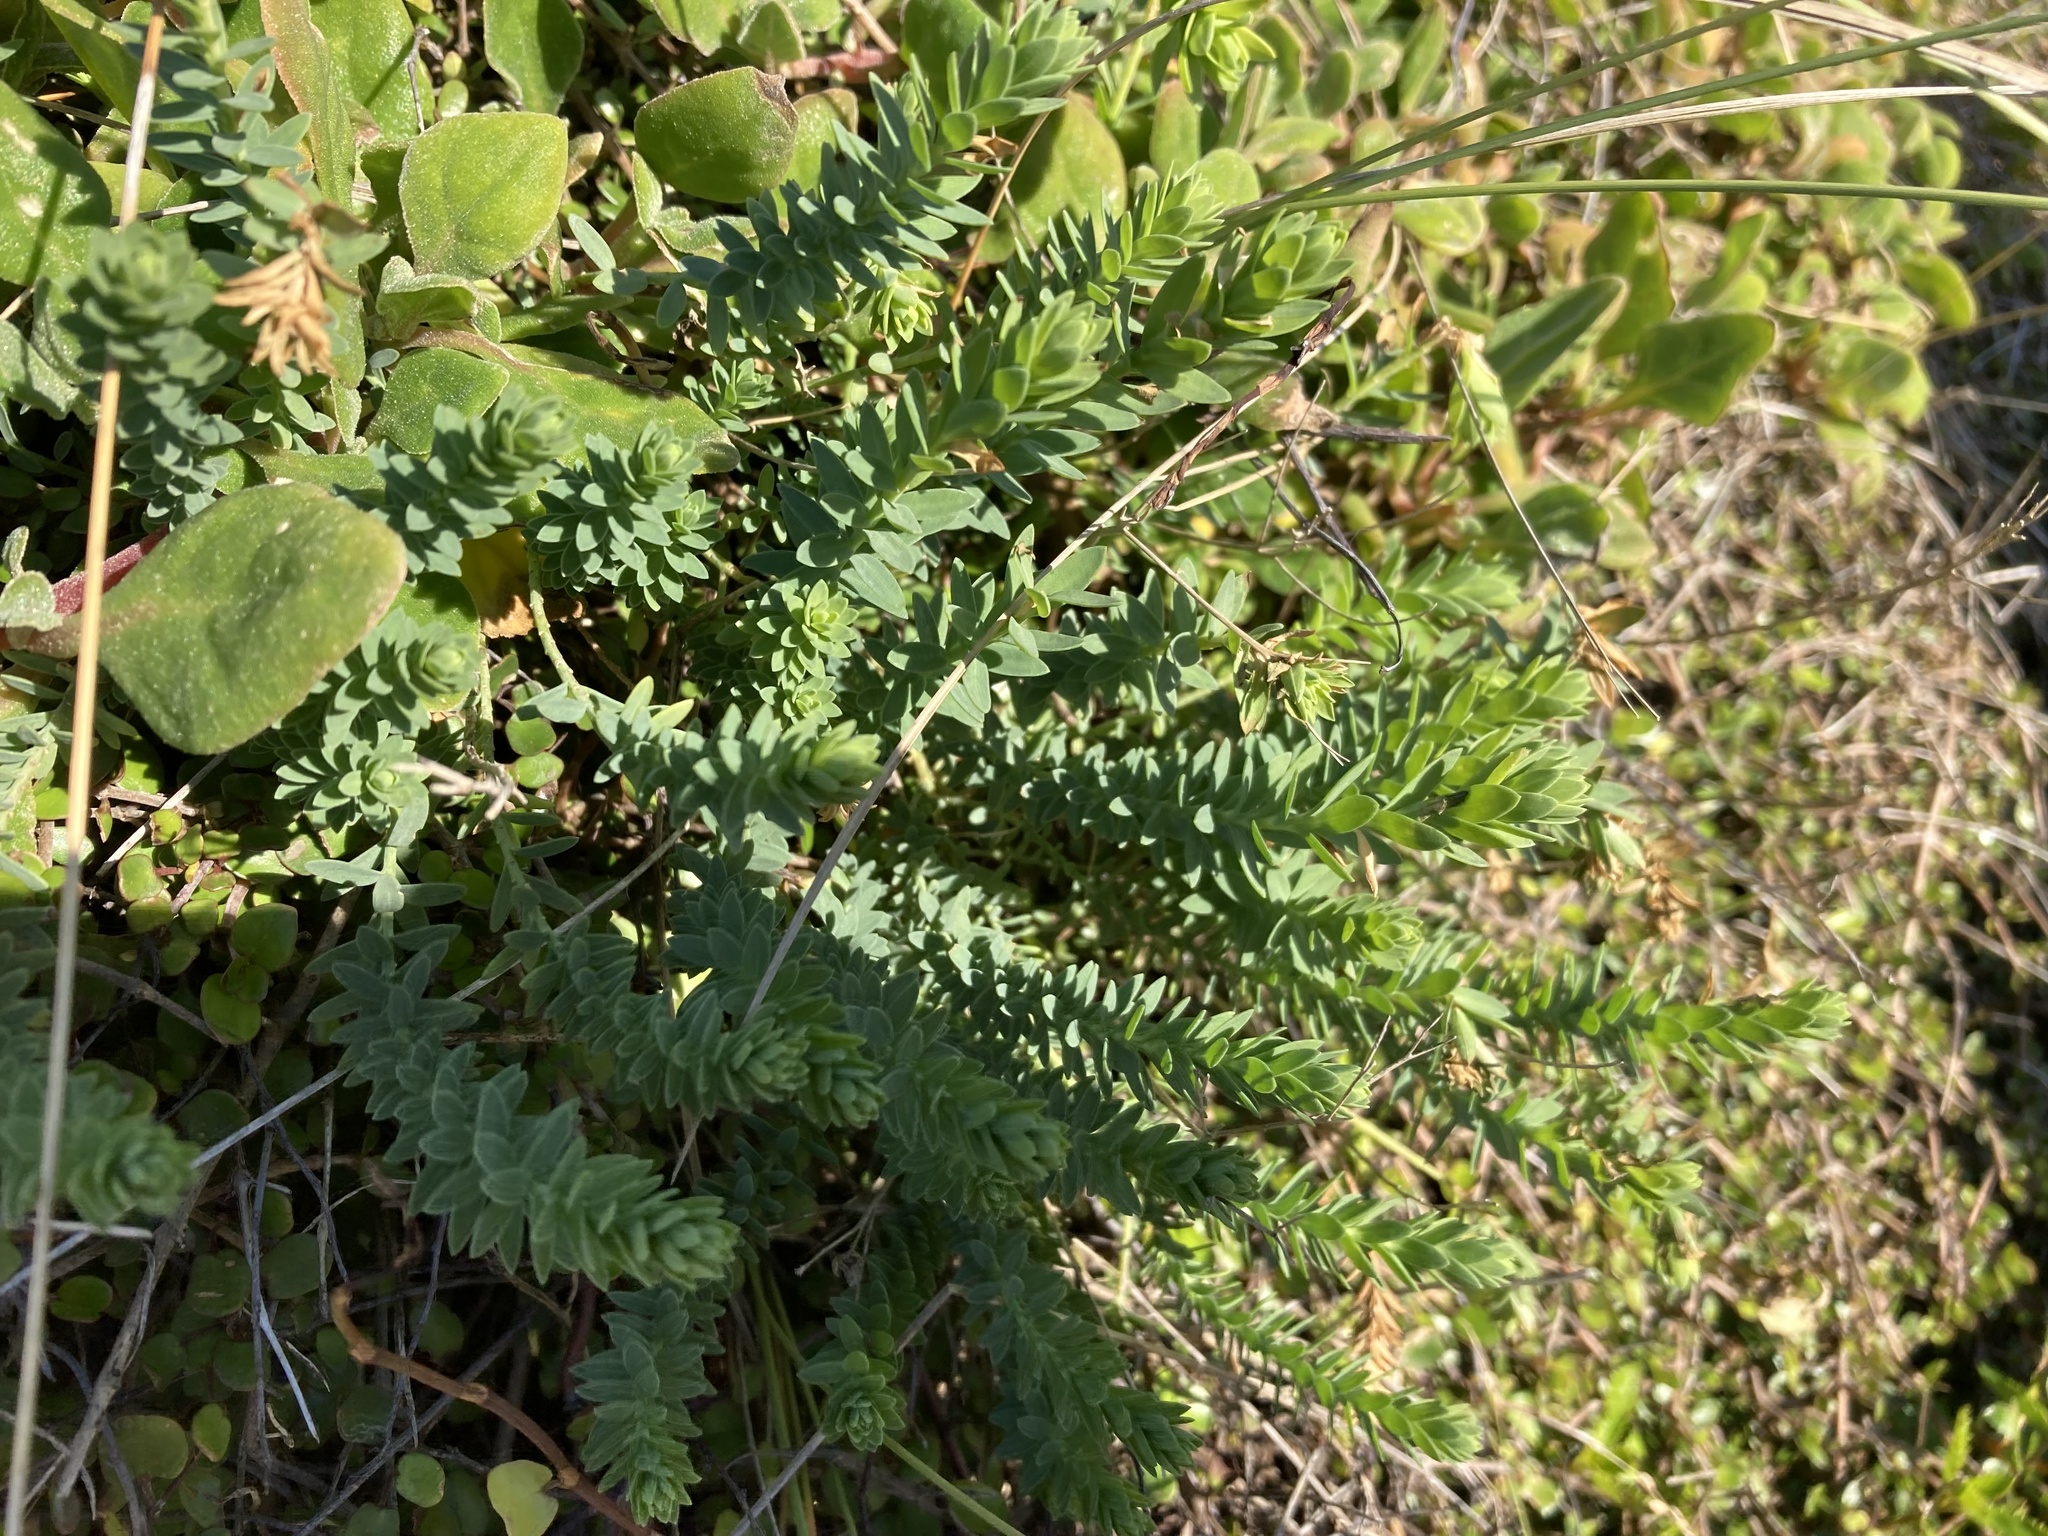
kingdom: Plantae
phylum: Tracheophyta
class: Magnoliopsida
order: Malpighiales
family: Linaceae
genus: Linum
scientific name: Linum monogynum
